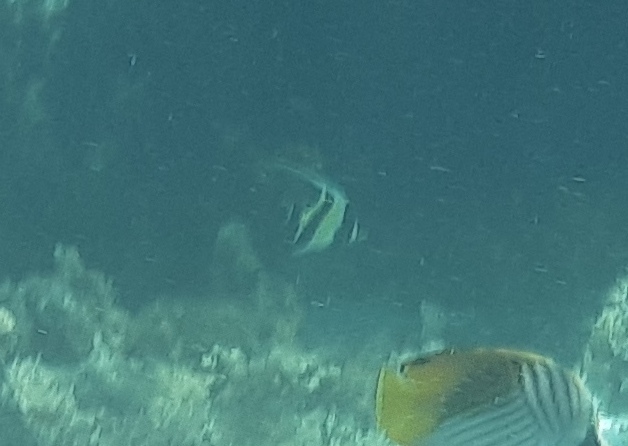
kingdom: Animalia
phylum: Chordata
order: Perciformes
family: Zanclidae
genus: Zanclus
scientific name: Zanclus cornutus
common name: Moorish idol
